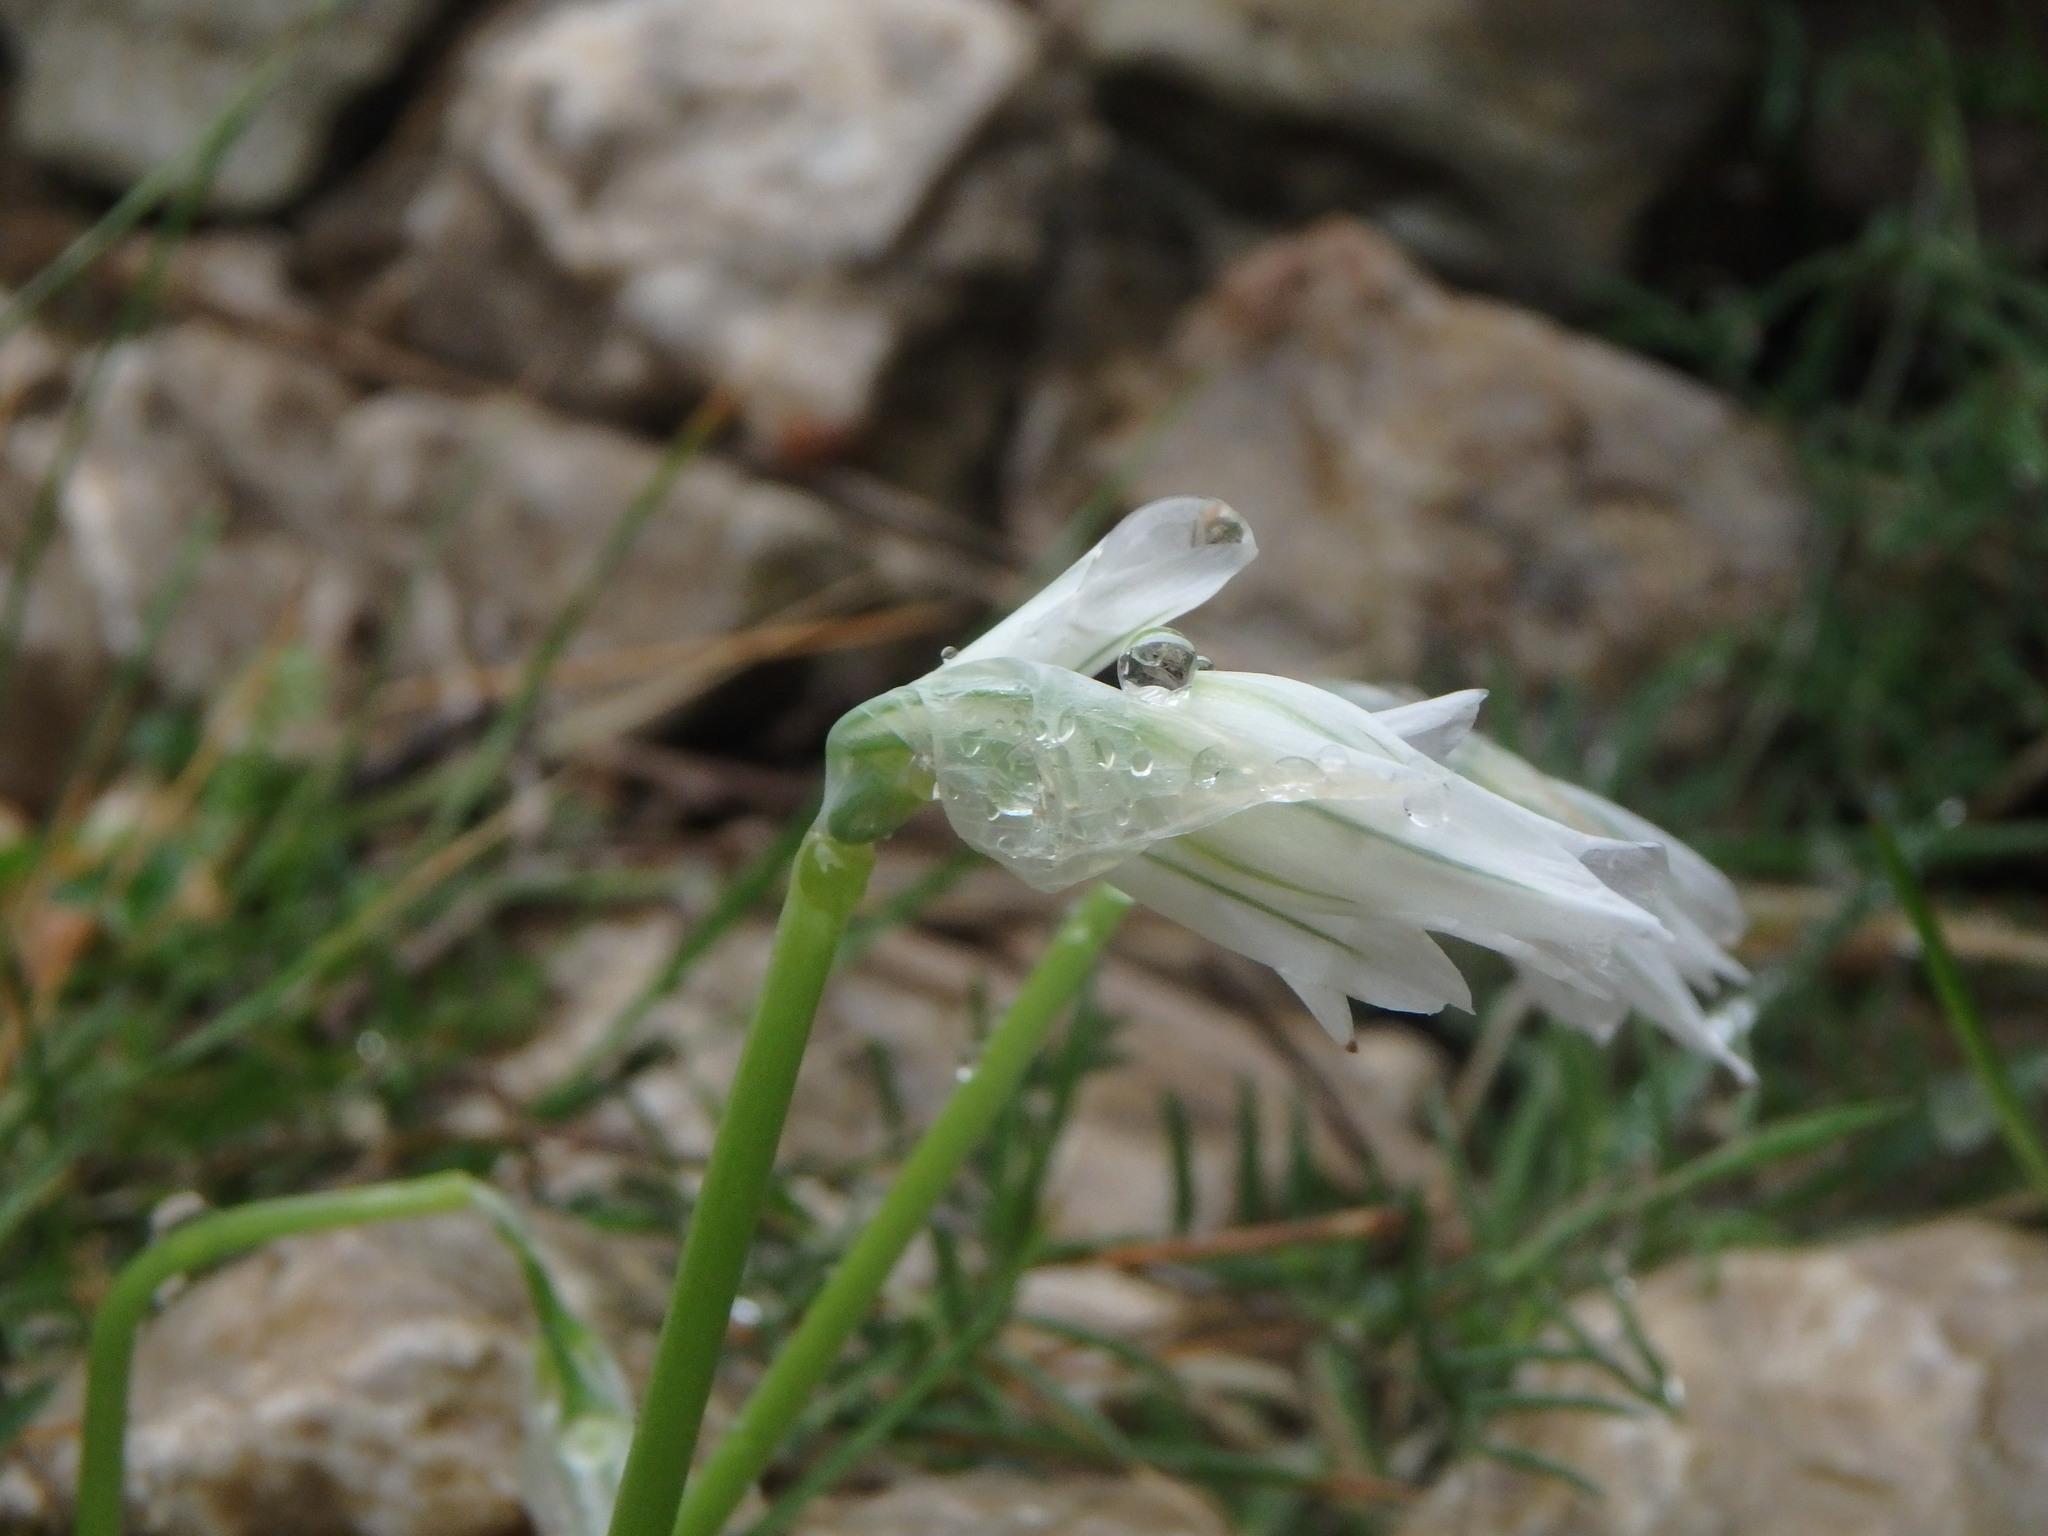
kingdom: Plantae
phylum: Tracheophyta
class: Liliopsida
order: Asparagales
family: Amaryllidaceae
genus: Allium
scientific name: Allium triquetrum
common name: Three-cornered garlic
